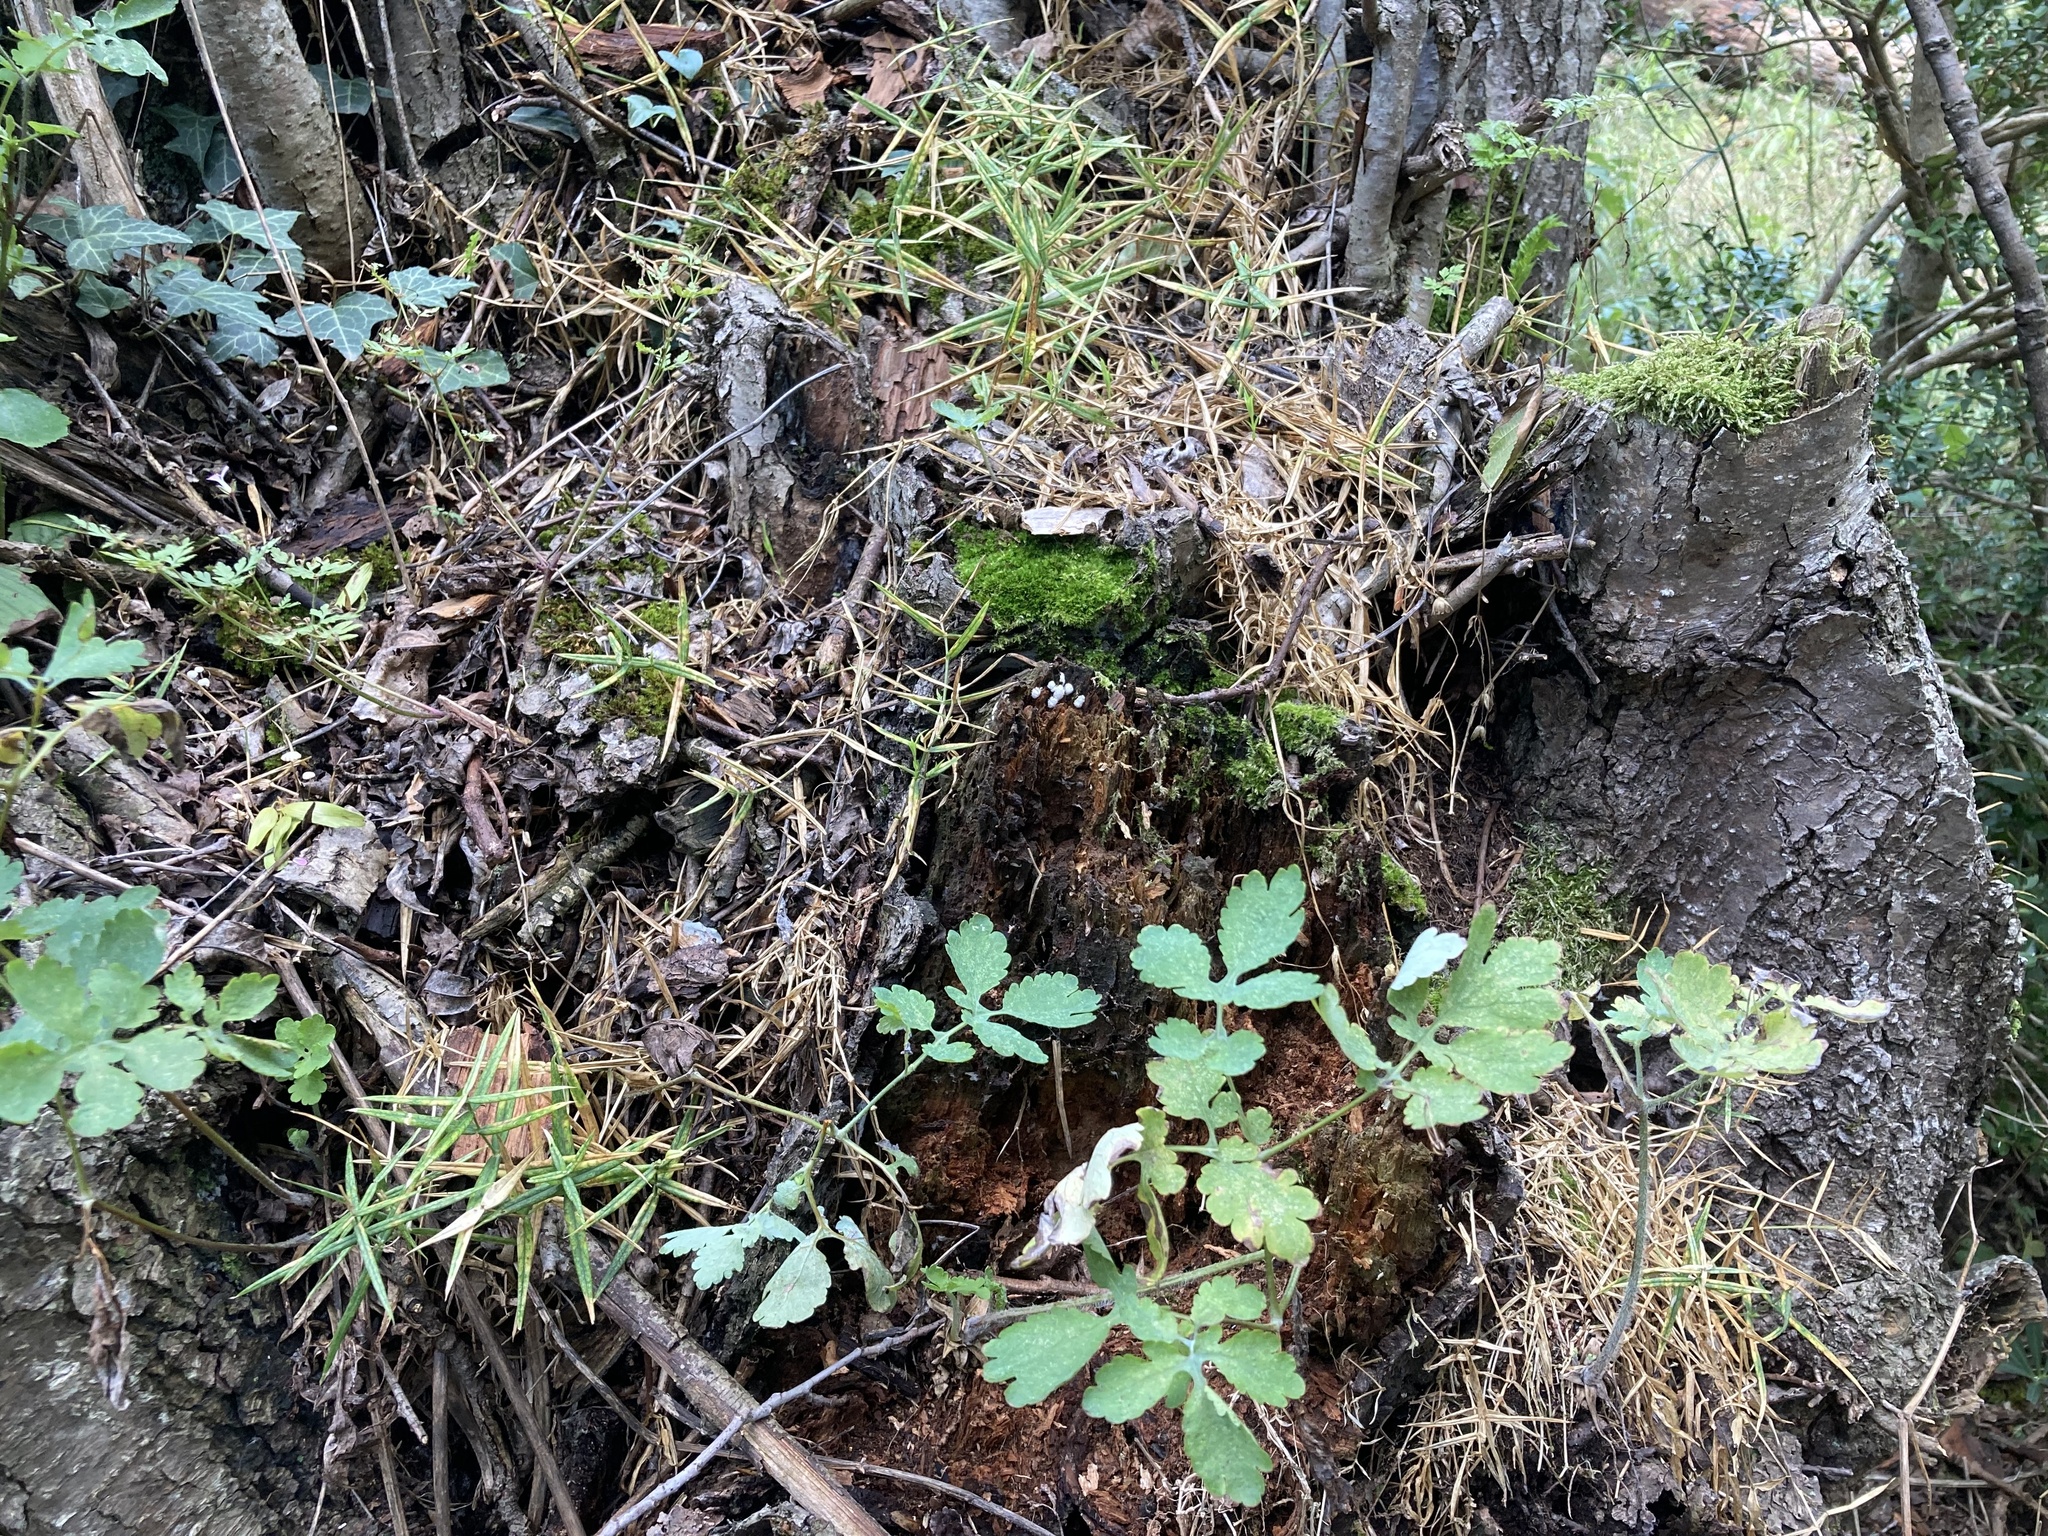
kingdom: Protozoa
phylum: Mycetozoa
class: Protosteliomycetes
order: Ceratiomyxales
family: Ceratiomyxaceae
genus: Ceratiomyxa
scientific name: Ceratiomyxa fruticulosa
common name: Honeycomb coral slime mold
